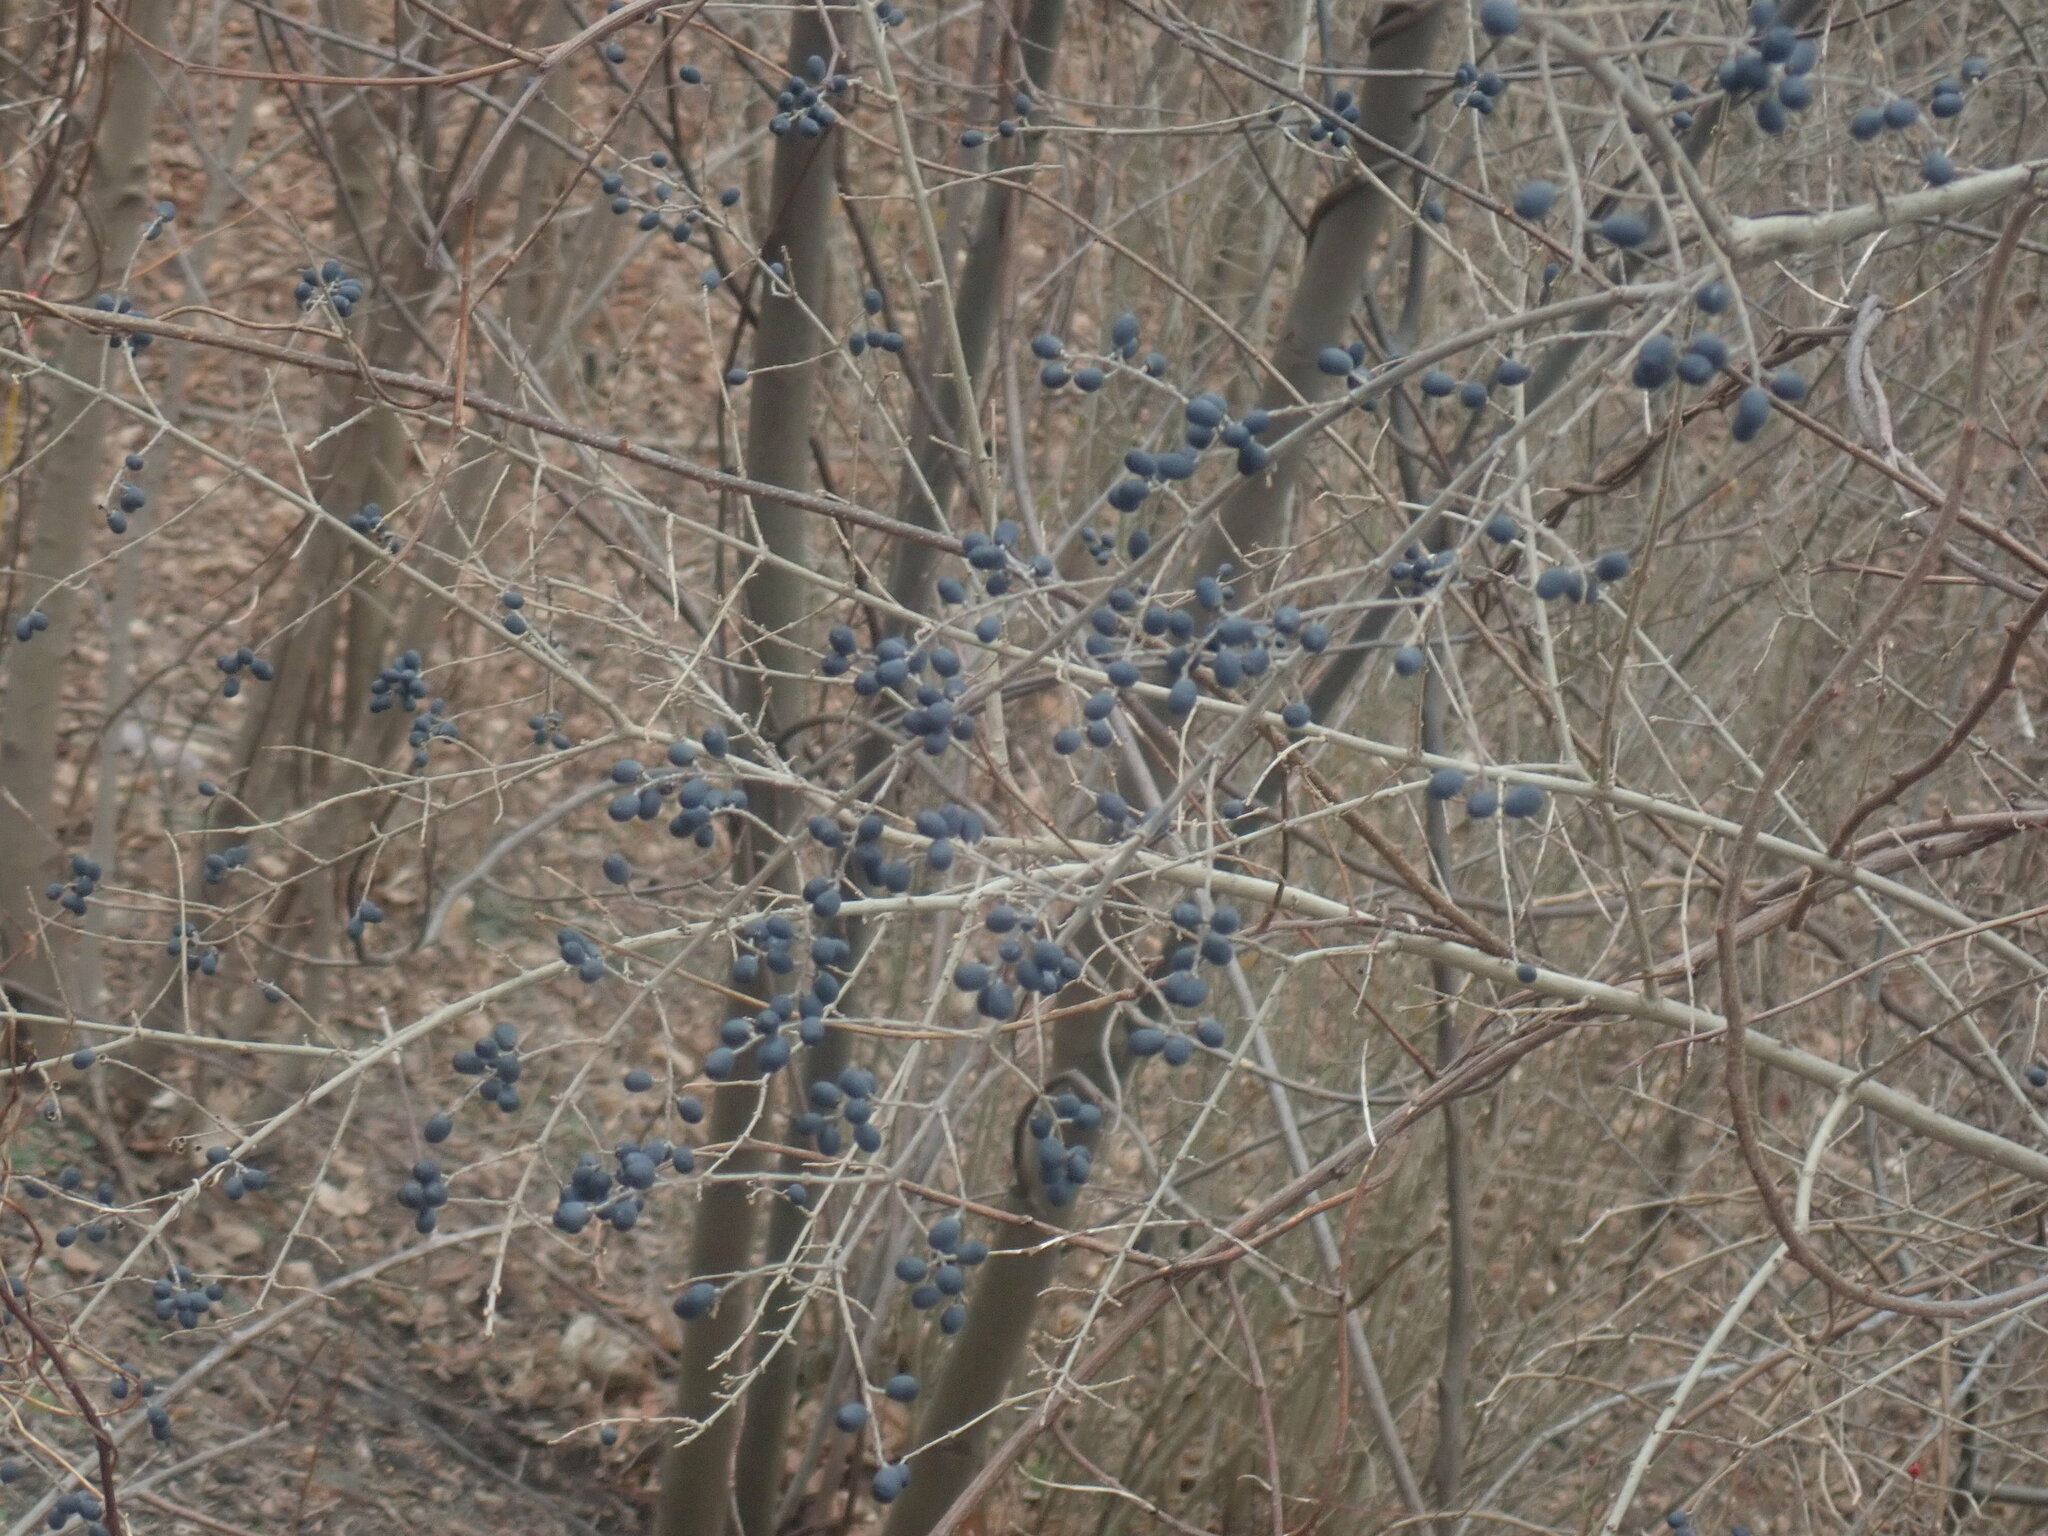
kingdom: Plantae
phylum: Tracheophyta
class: Magnoliopsida
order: Lamiales
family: Oleaceae
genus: Ligustrum
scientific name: Ligustrum obtusifolium
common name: Border privet
